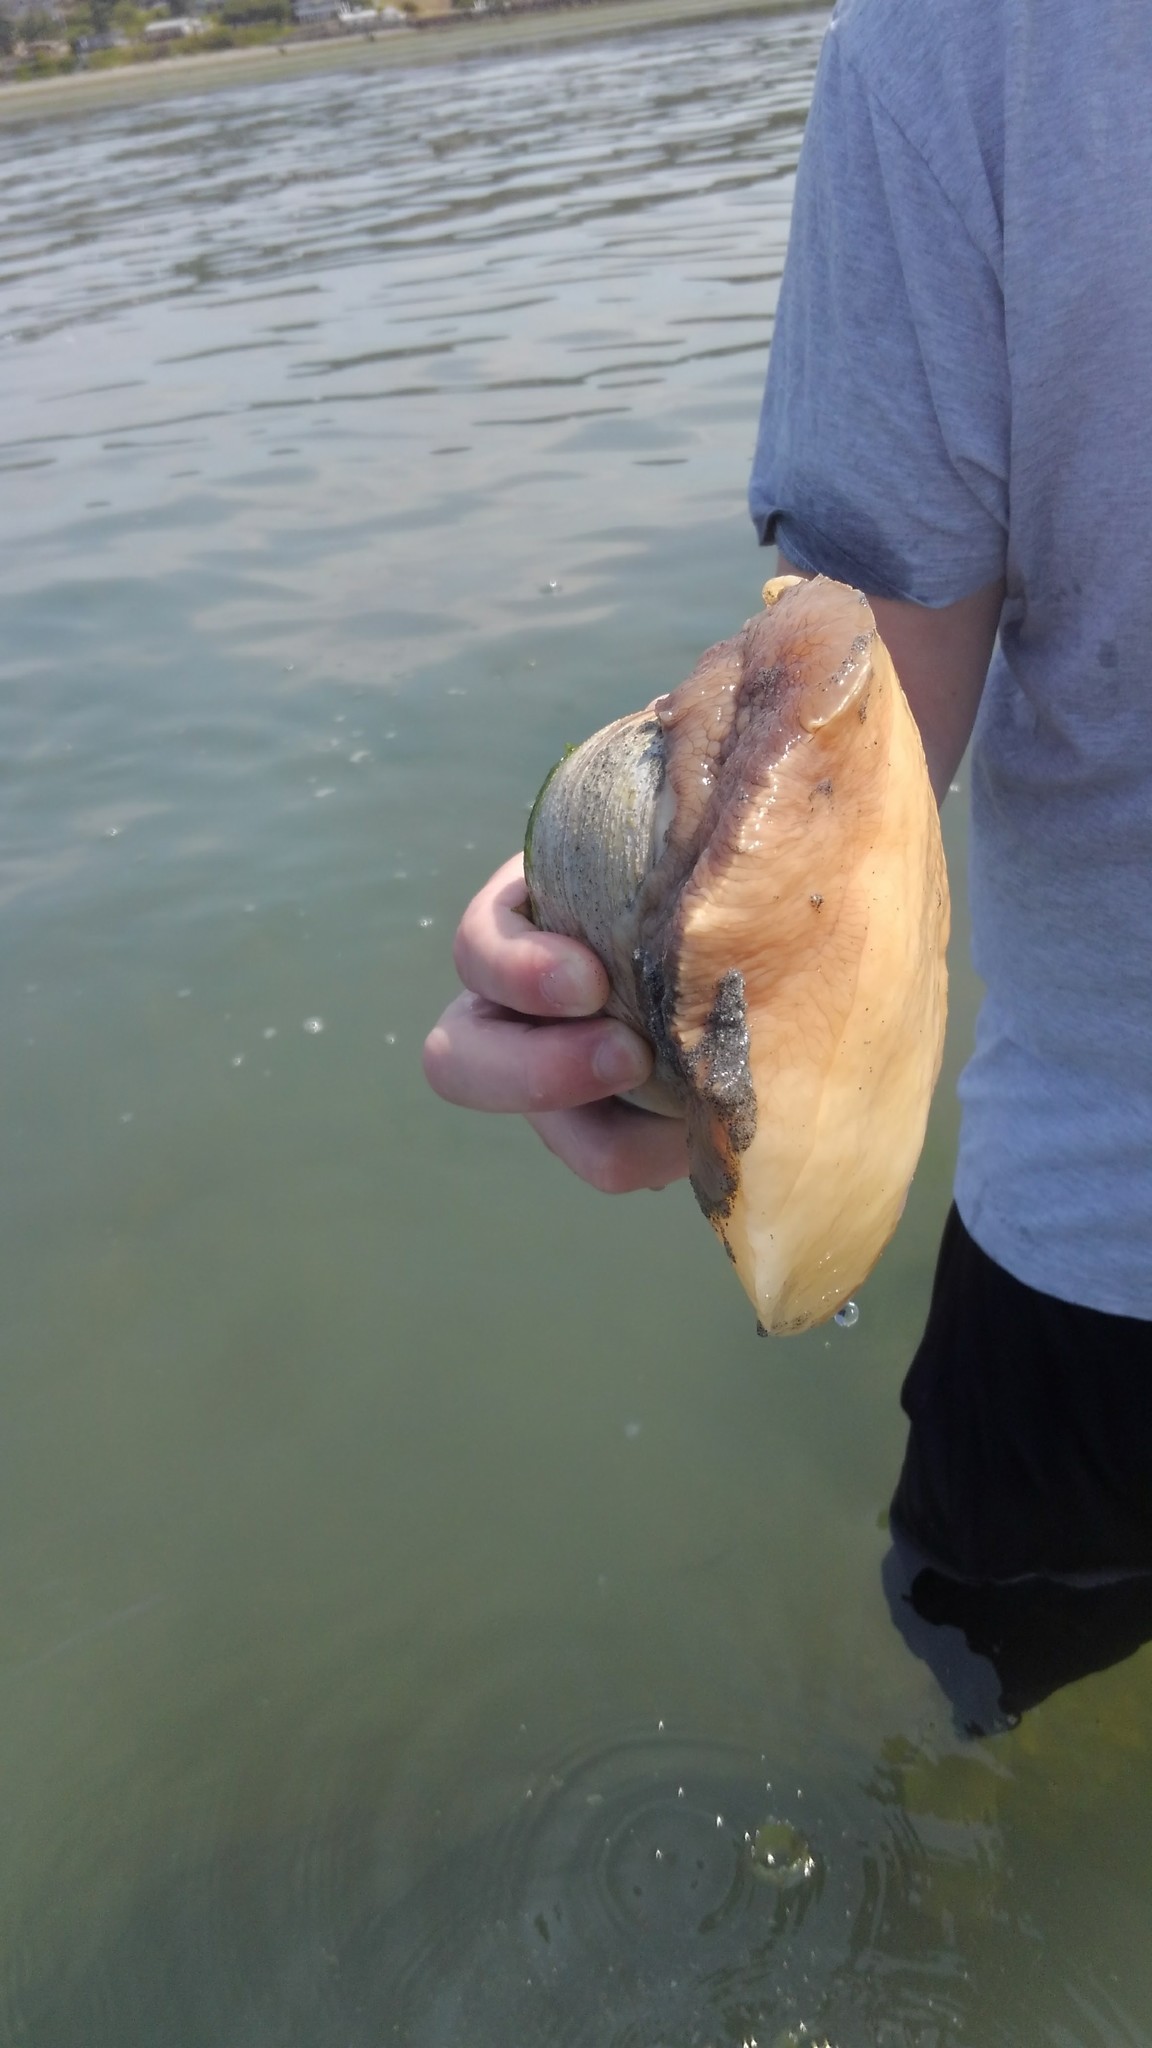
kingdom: Animalia
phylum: Mollusca
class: Gastropoda
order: Littorinimorpha
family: Naticidae
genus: Neverita
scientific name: Neverita lewisii
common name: Lewis' moonsnail
